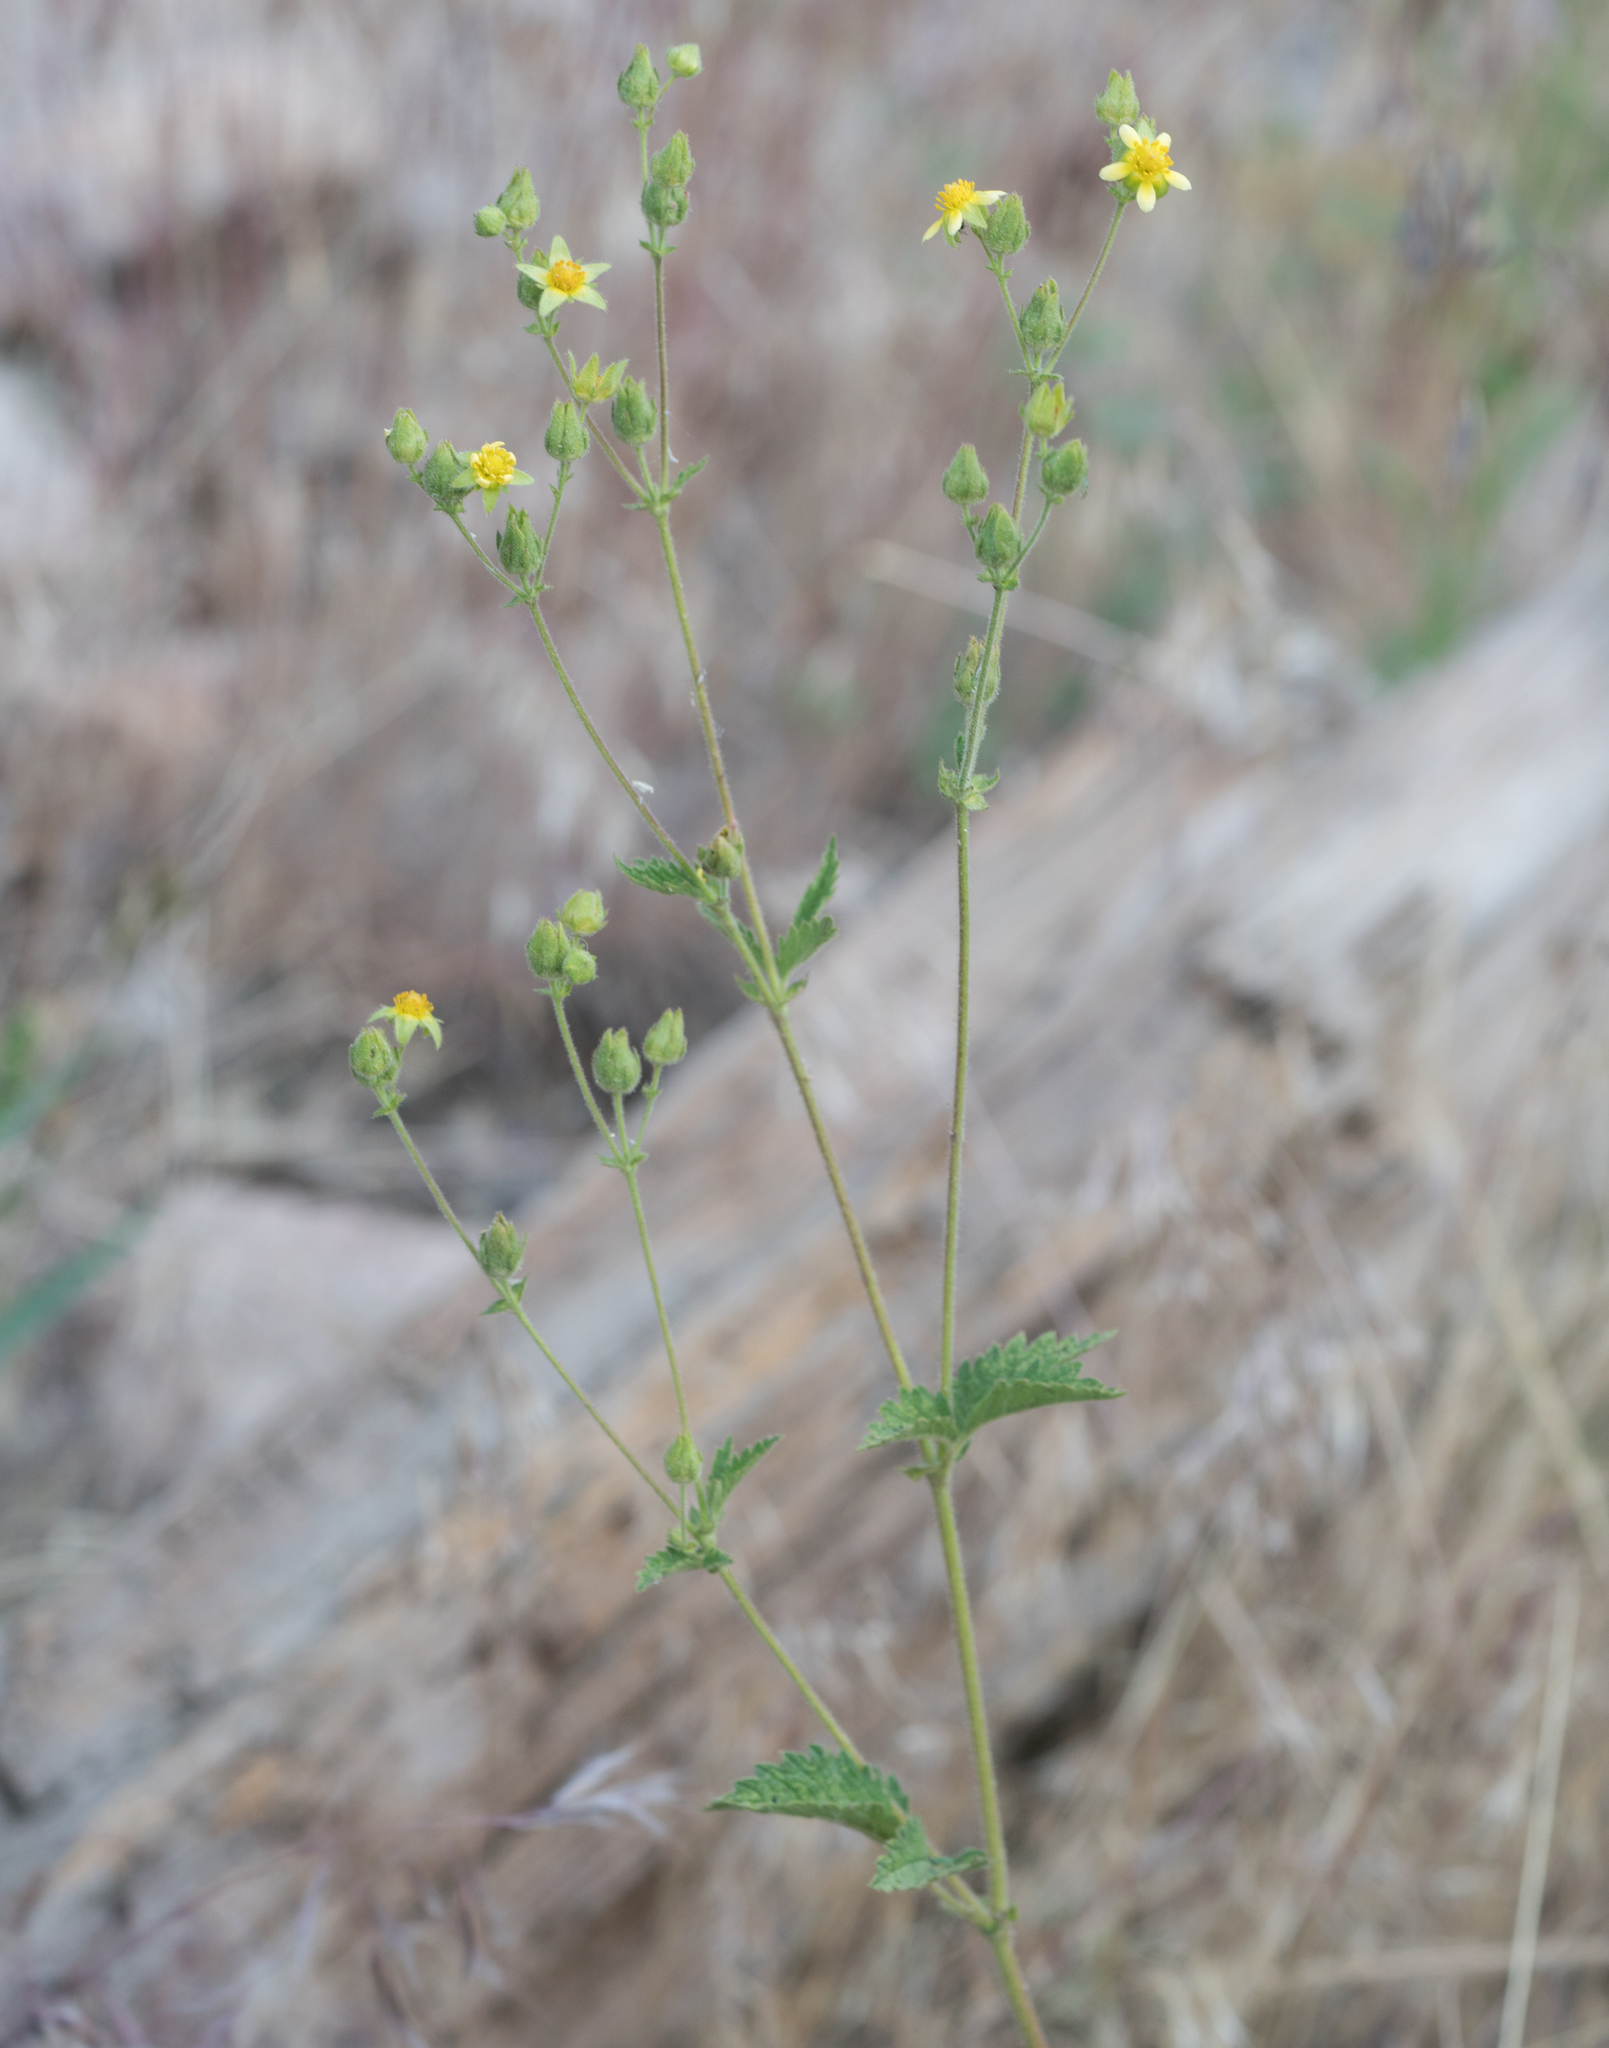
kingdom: Plantae
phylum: Tracheophyta
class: Magnoliopsida
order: Rosales
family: Rosaceae
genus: Drymocallis
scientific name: Drymocallis glandulosa
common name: Sticky cinquefoil
